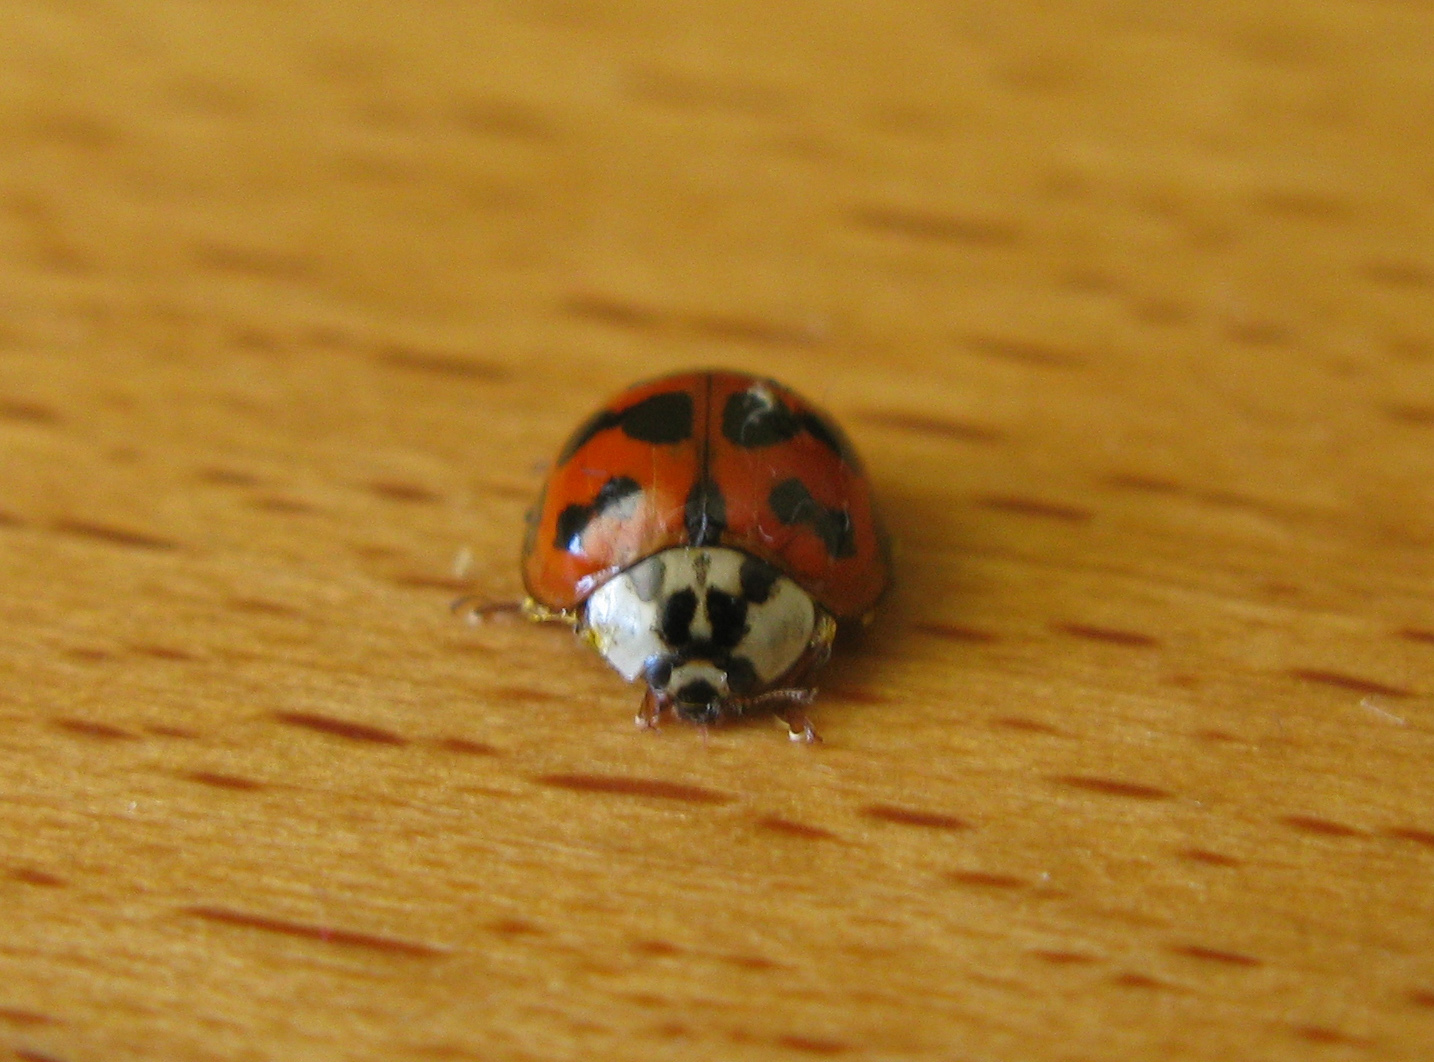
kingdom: Animalia
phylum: Arthropoda
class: Insecta
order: Coleoptera
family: Coccinellidae
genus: Harmonia
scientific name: Harmonia axyridis
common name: Harlequin ladybird
